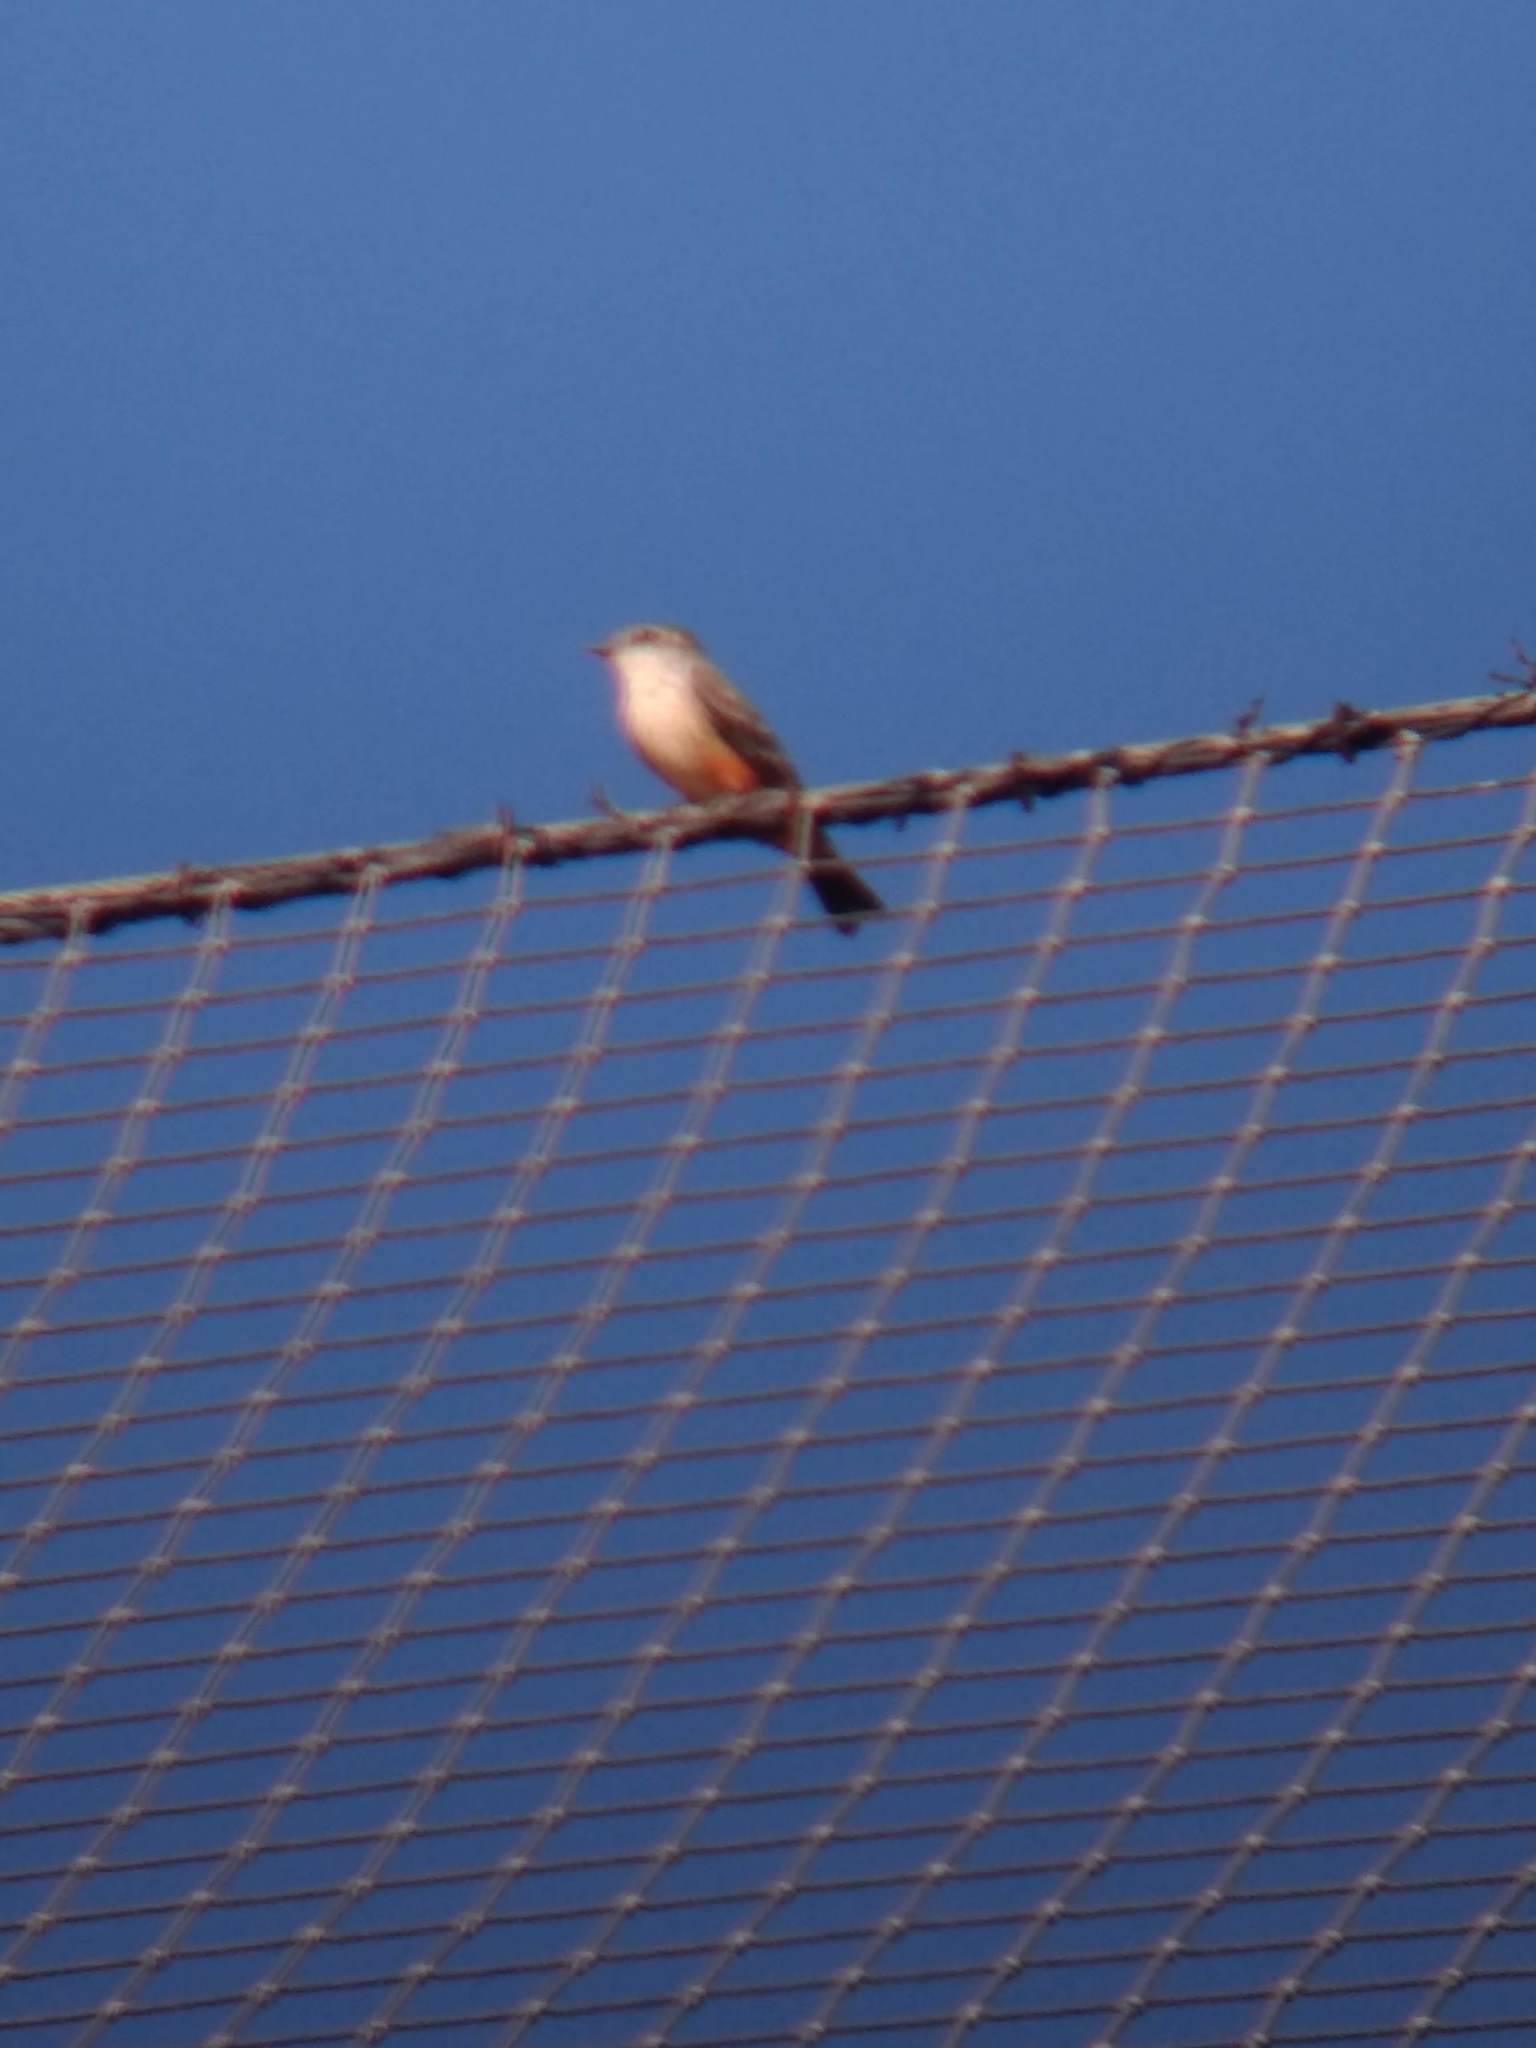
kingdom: Animalia
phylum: Chordata
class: Aves
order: Passeriformes
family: Tyrannidae
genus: Pyrocephalus
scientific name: Pyrocephalus rubinus
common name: Vermilion flycatcher
